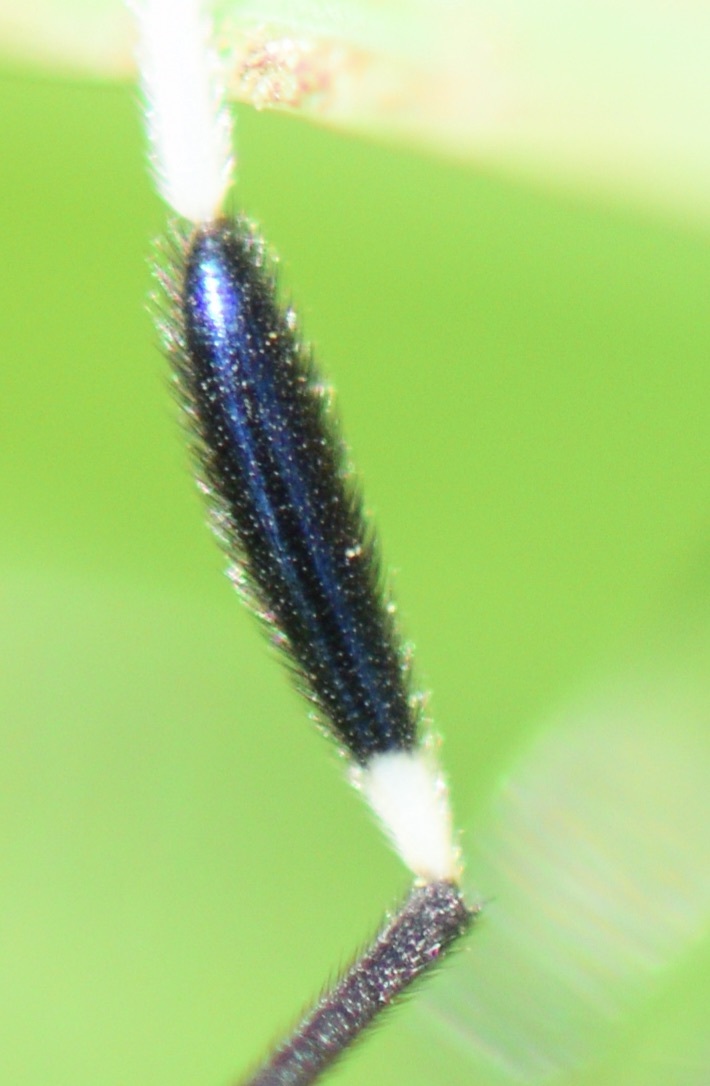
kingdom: Animalia
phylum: Arthropoda
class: Insecta
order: Diptera
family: Ptychopteridae
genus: Bittacomorpha
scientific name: Bittacomorpha clavipes
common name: Eastern phantom crane fly
